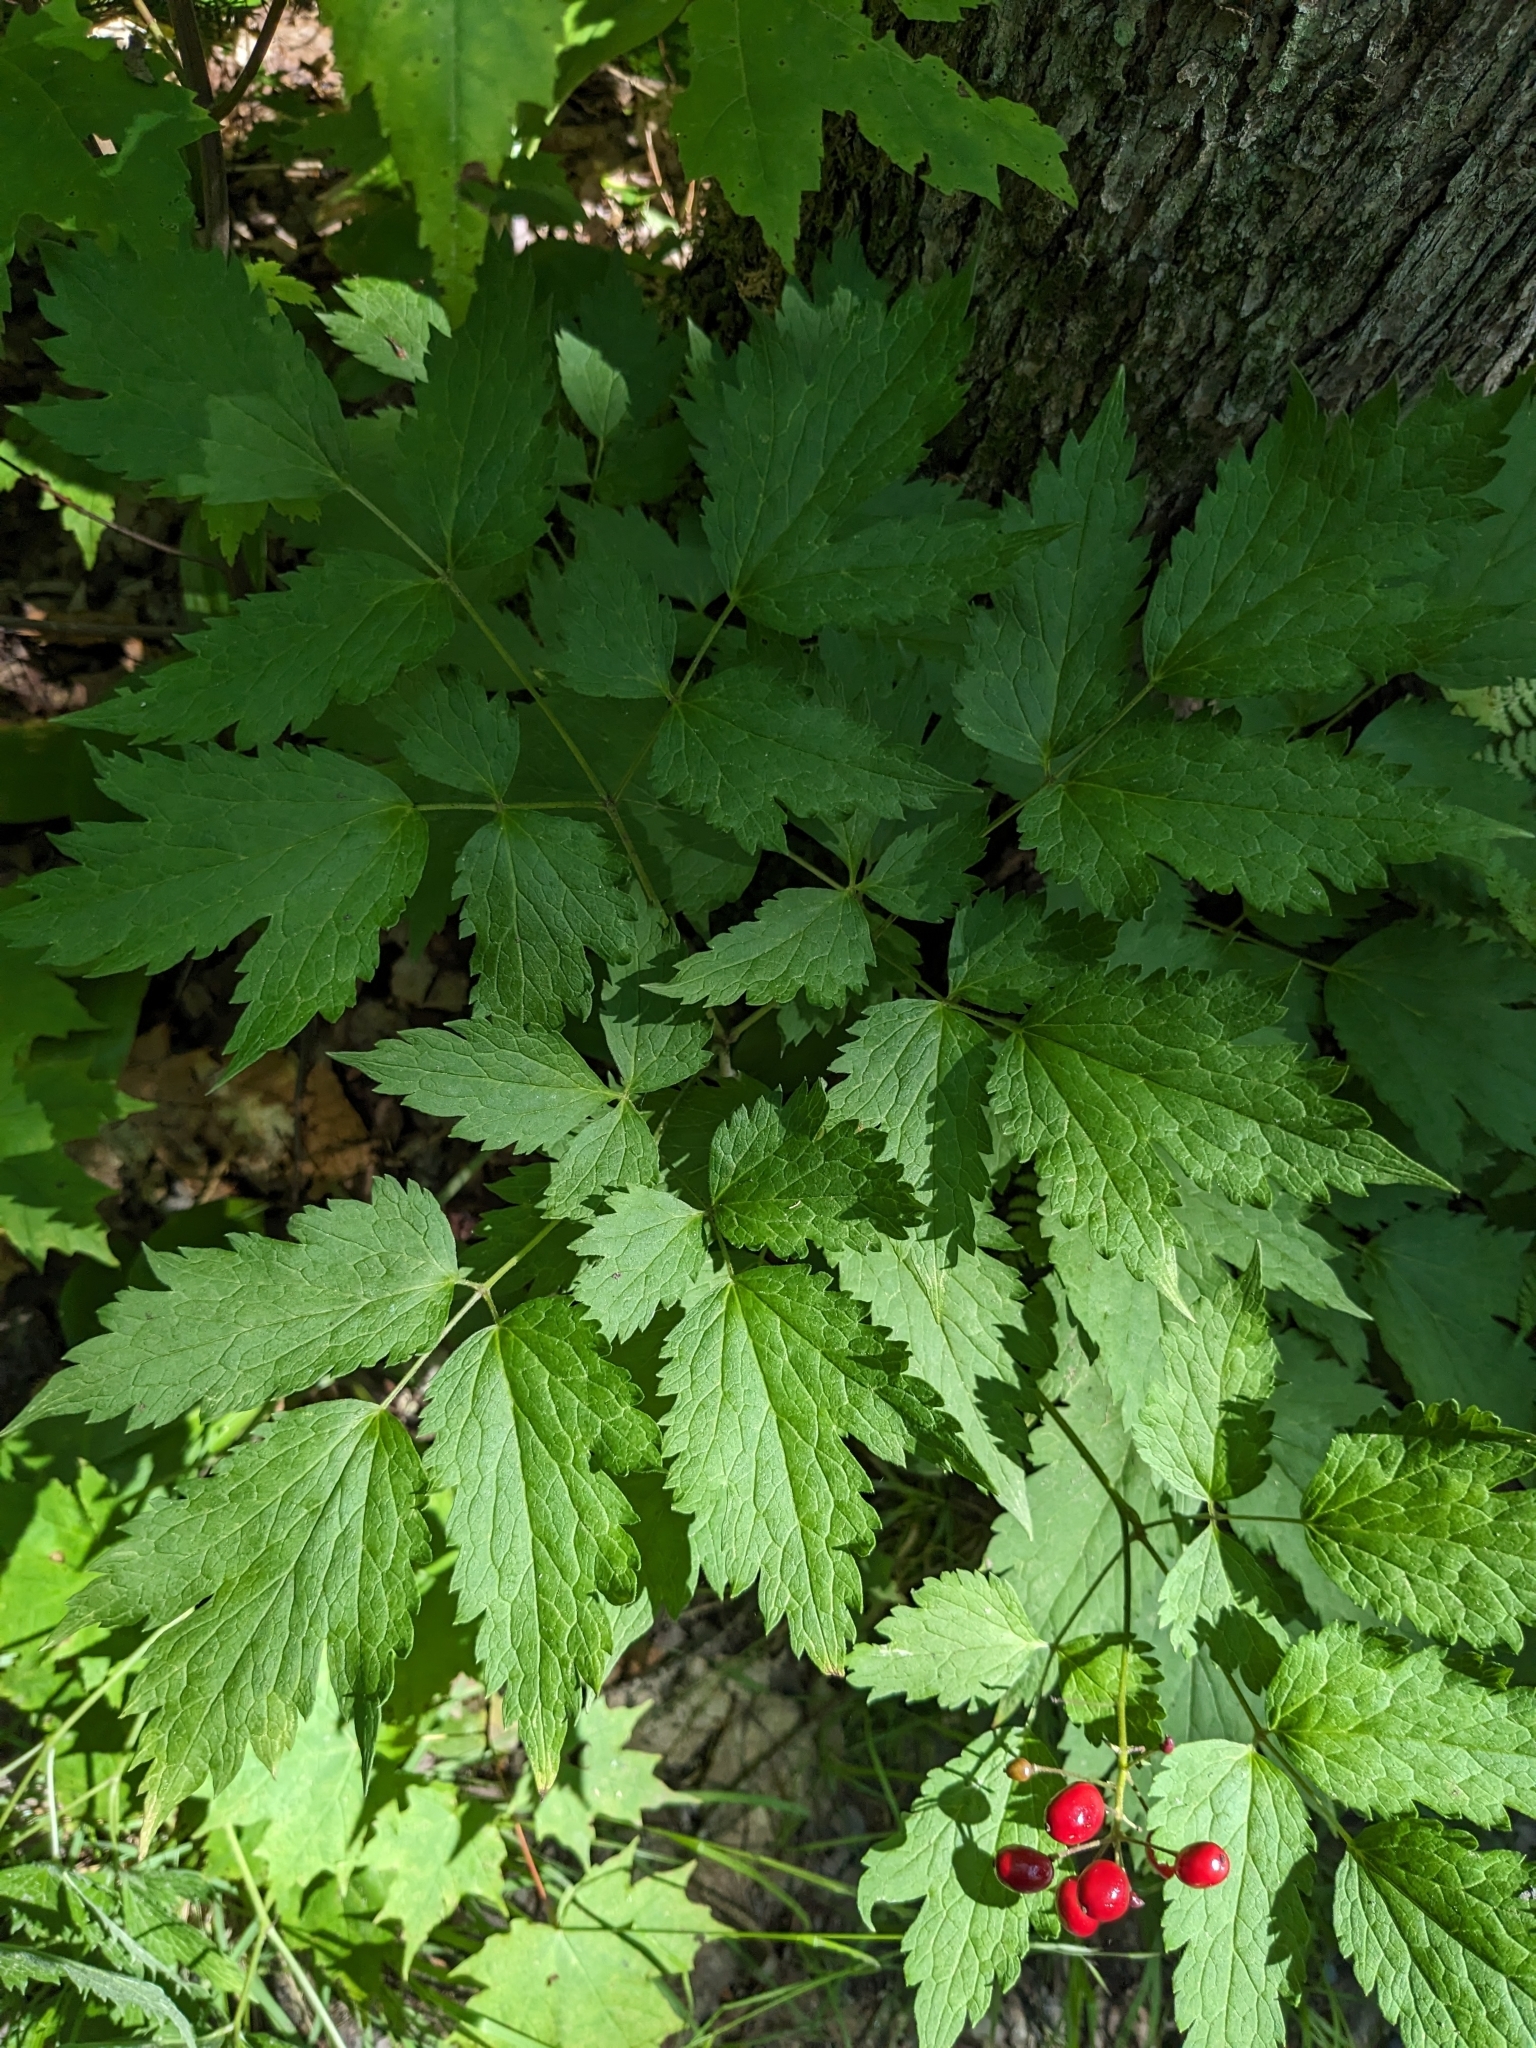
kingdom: Plantae
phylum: Tracheophyta
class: Magnoliopsida
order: Ranunculales
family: Ranunculaceae
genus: Actaea
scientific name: Actaea rubra
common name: Red baneberry
